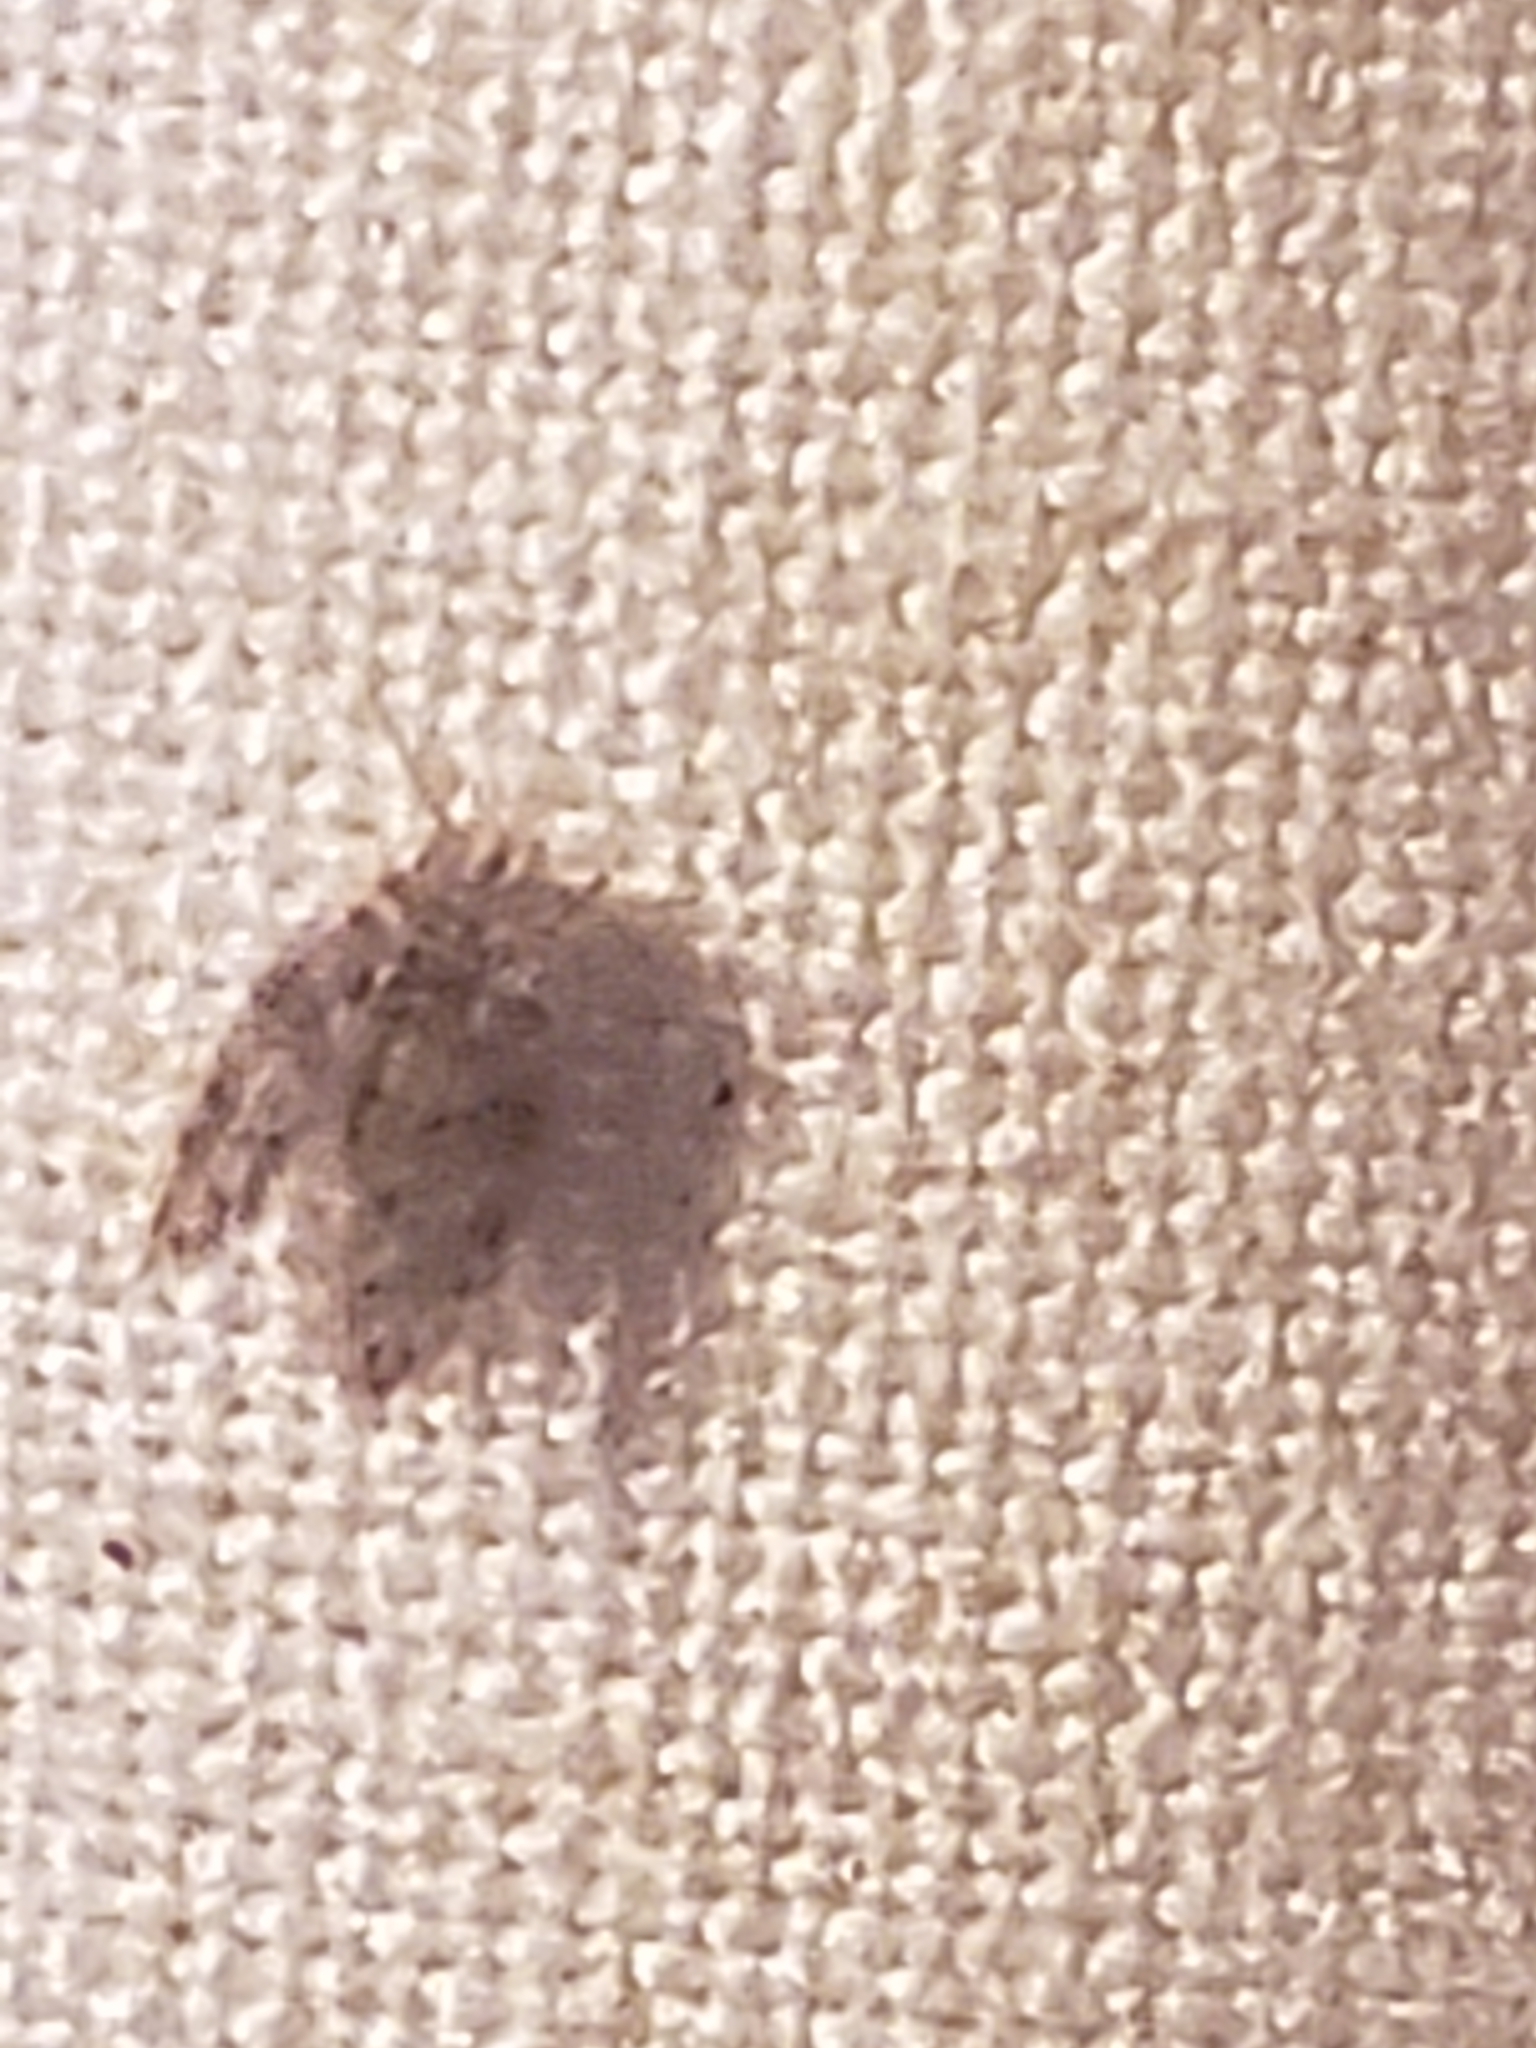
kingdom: Animalia
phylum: Arthropoda
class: Insecta
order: Diptera
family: Psychodidae
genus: Psychoda
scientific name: Psychoda alternata
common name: Moth fly
